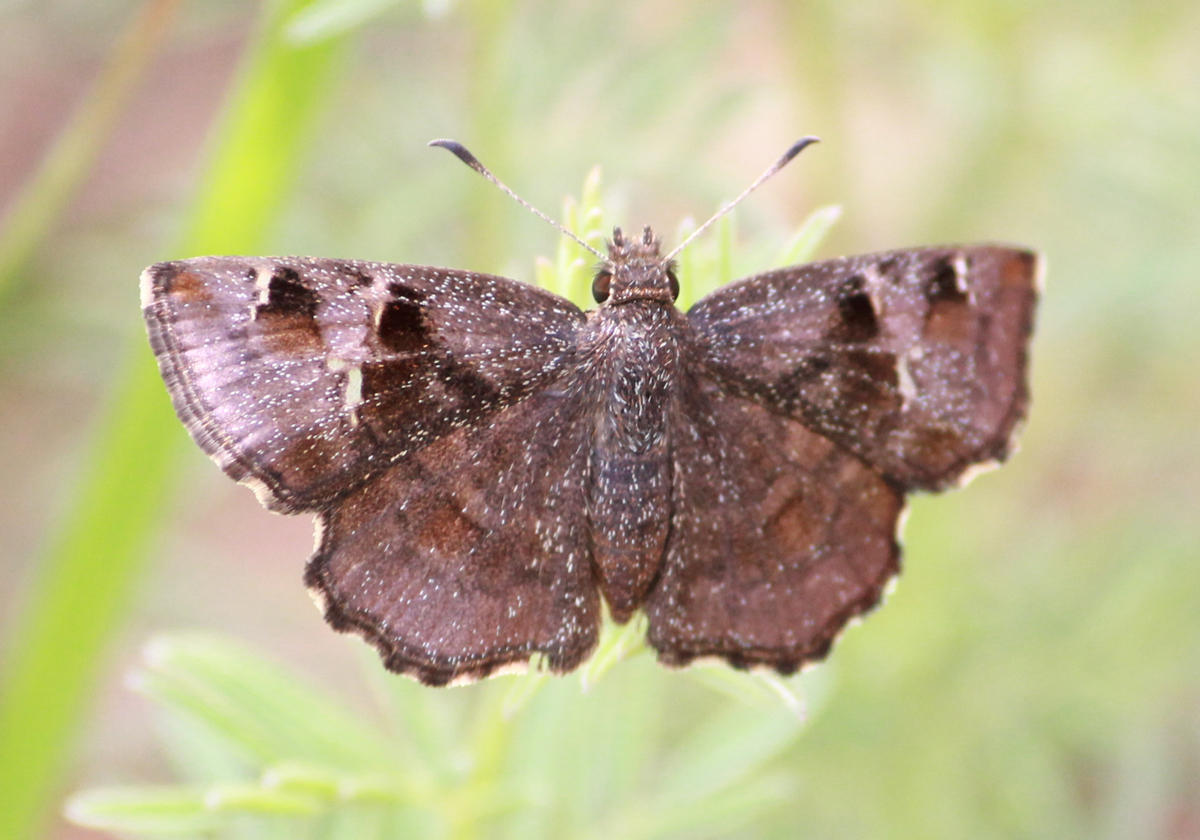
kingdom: Animalia
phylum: Arthropoda
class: Insecta
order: Lepidoptera
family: Hesperiidae
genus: Eretis
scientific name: Eretis
